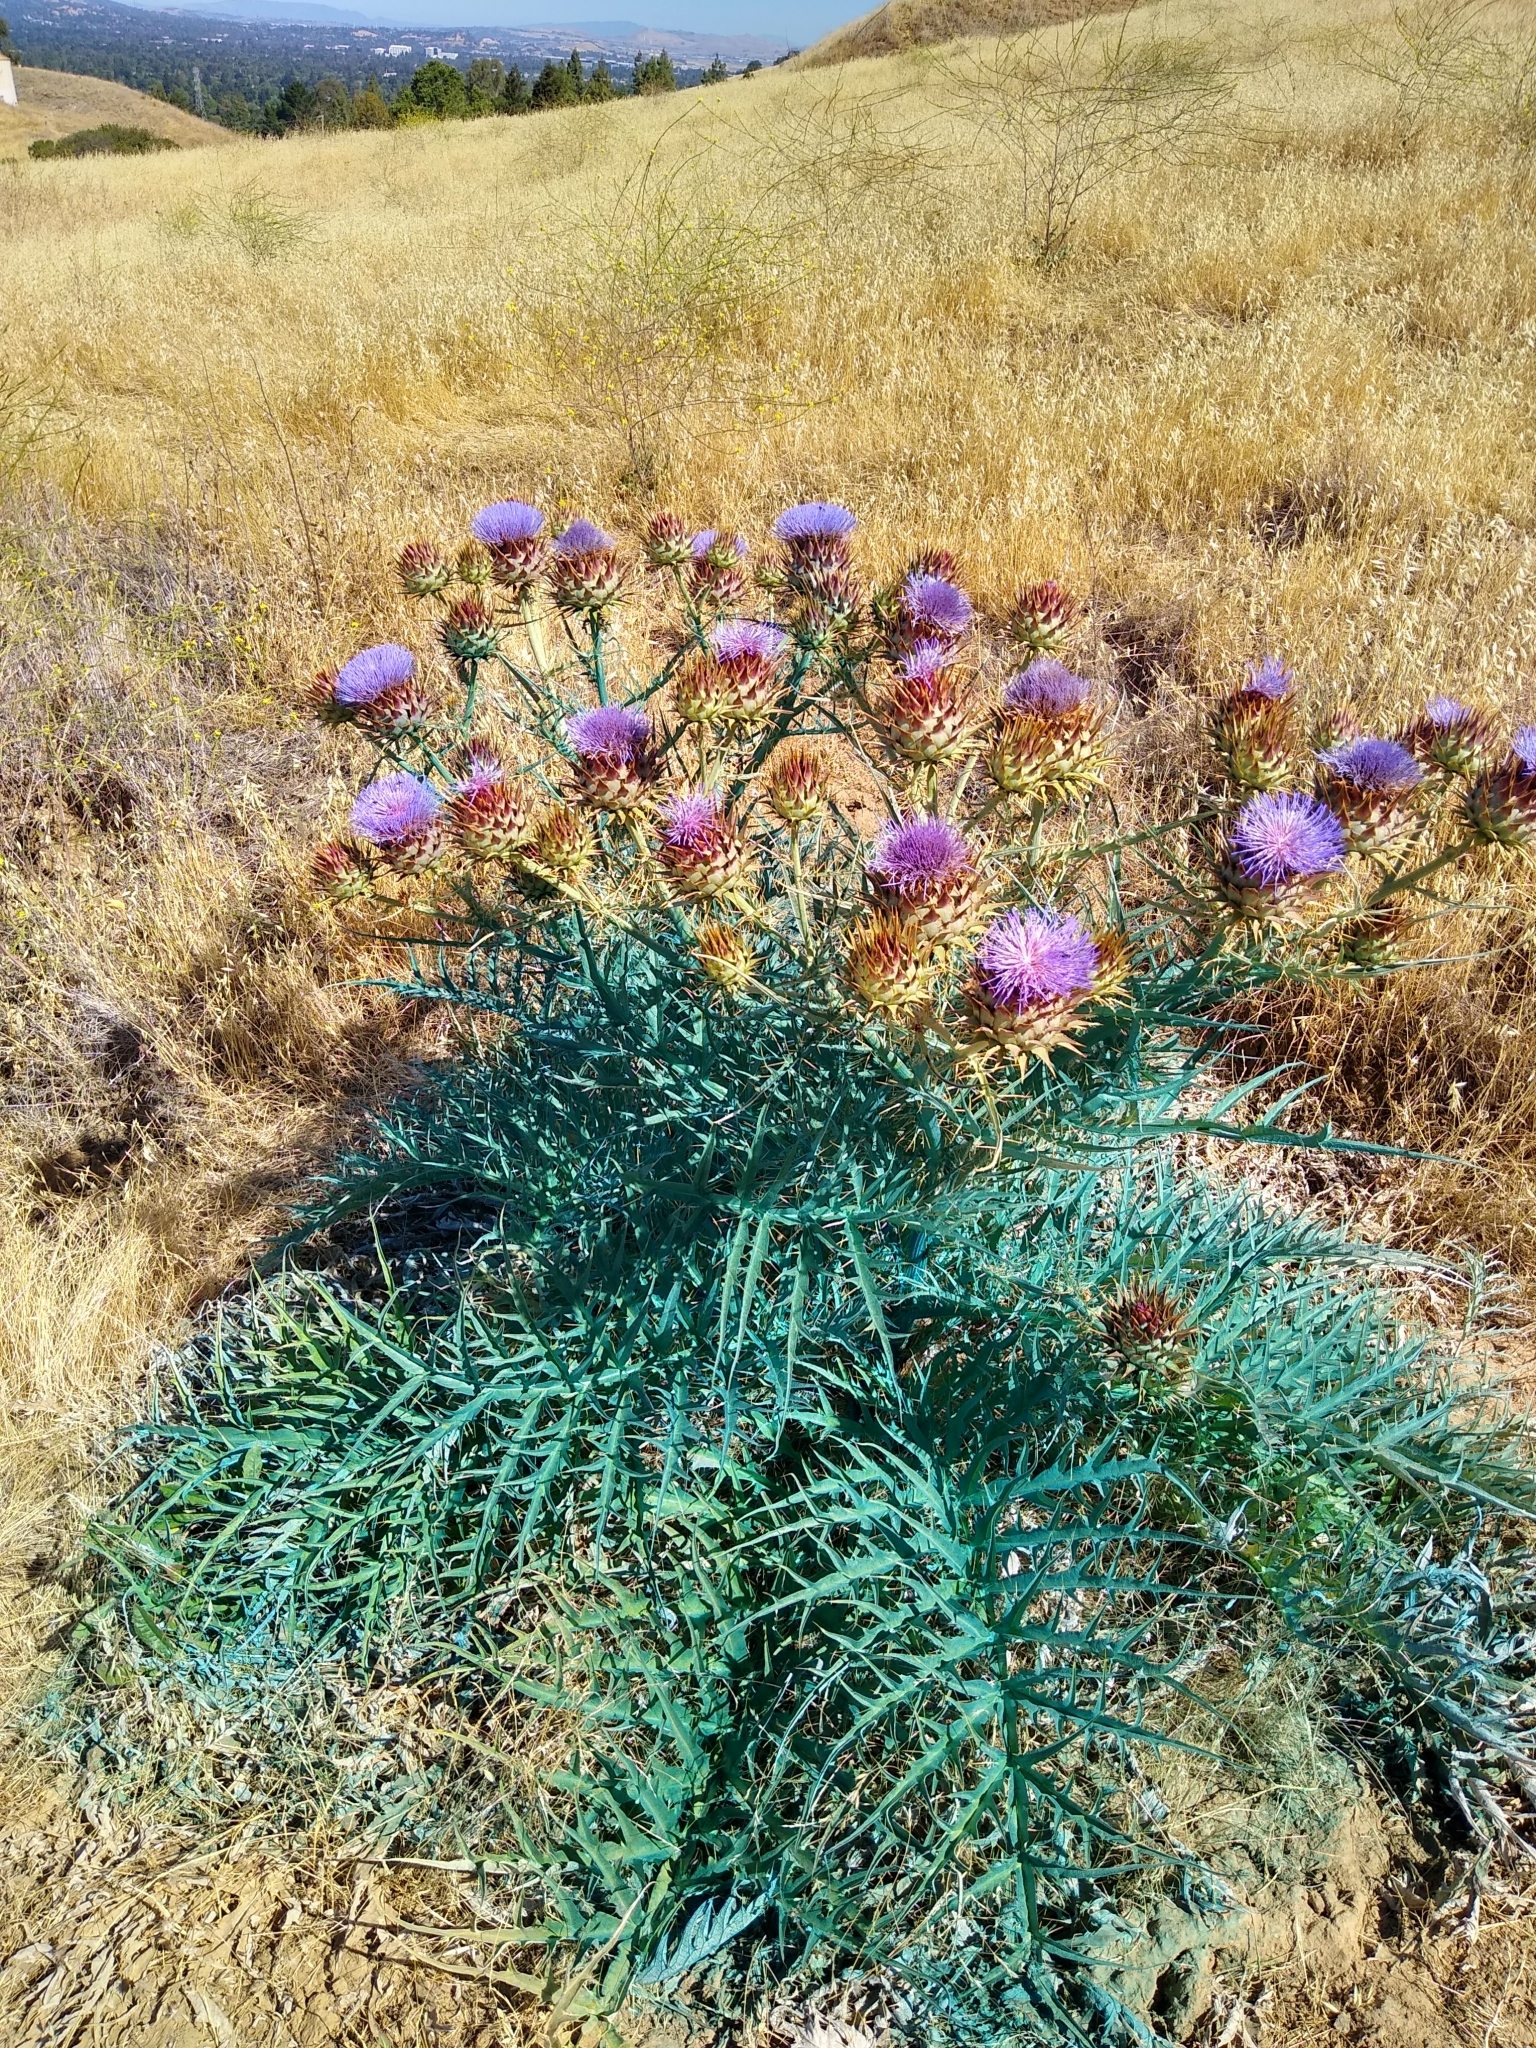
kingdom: Plantae
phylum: Tracheophyta
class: Magnoliopsida
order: Asterales
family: Asteraceae
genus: Cynara
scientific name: Cynara cardunculus
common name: Globe artichoke
